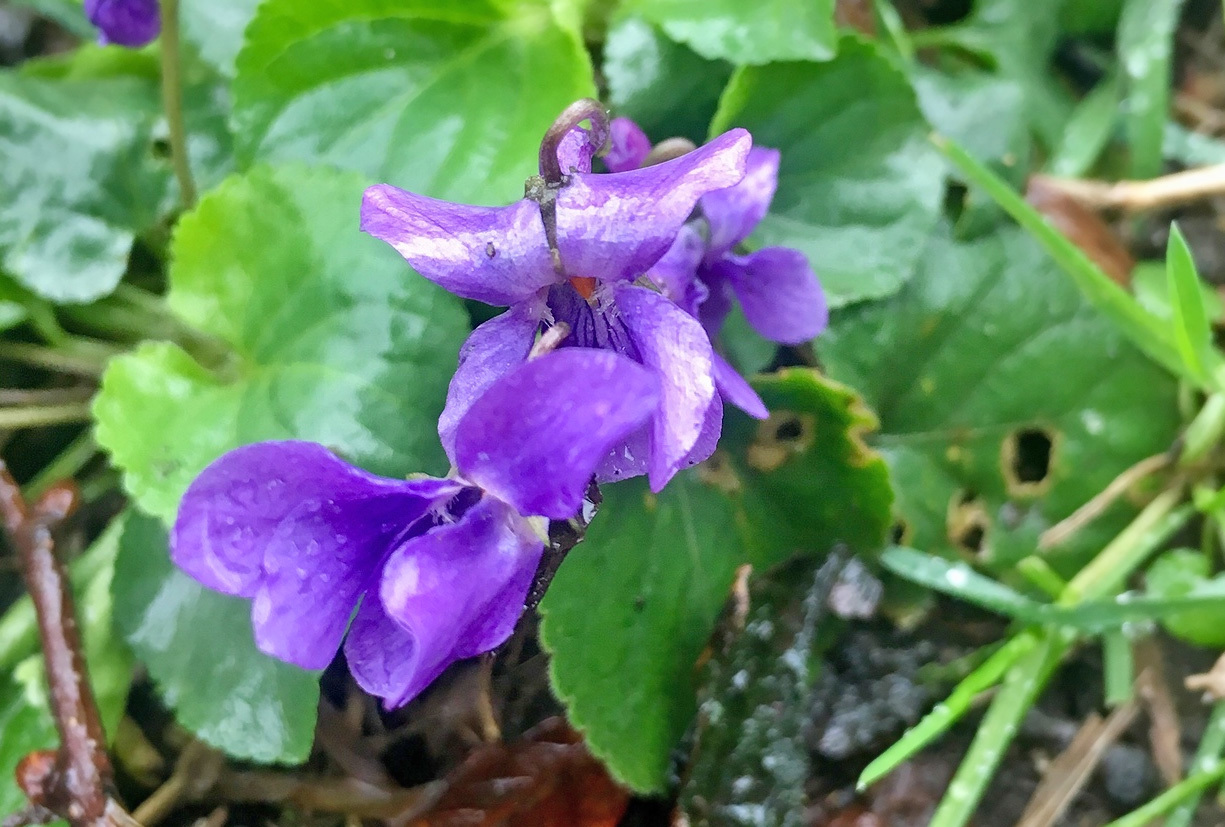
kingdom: Plantae
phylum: Tracheophyta
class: Magnoliopsida
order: Malpighiales
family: Violaceae
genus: Viola
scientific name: Viola odorata
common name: Sweet violet
